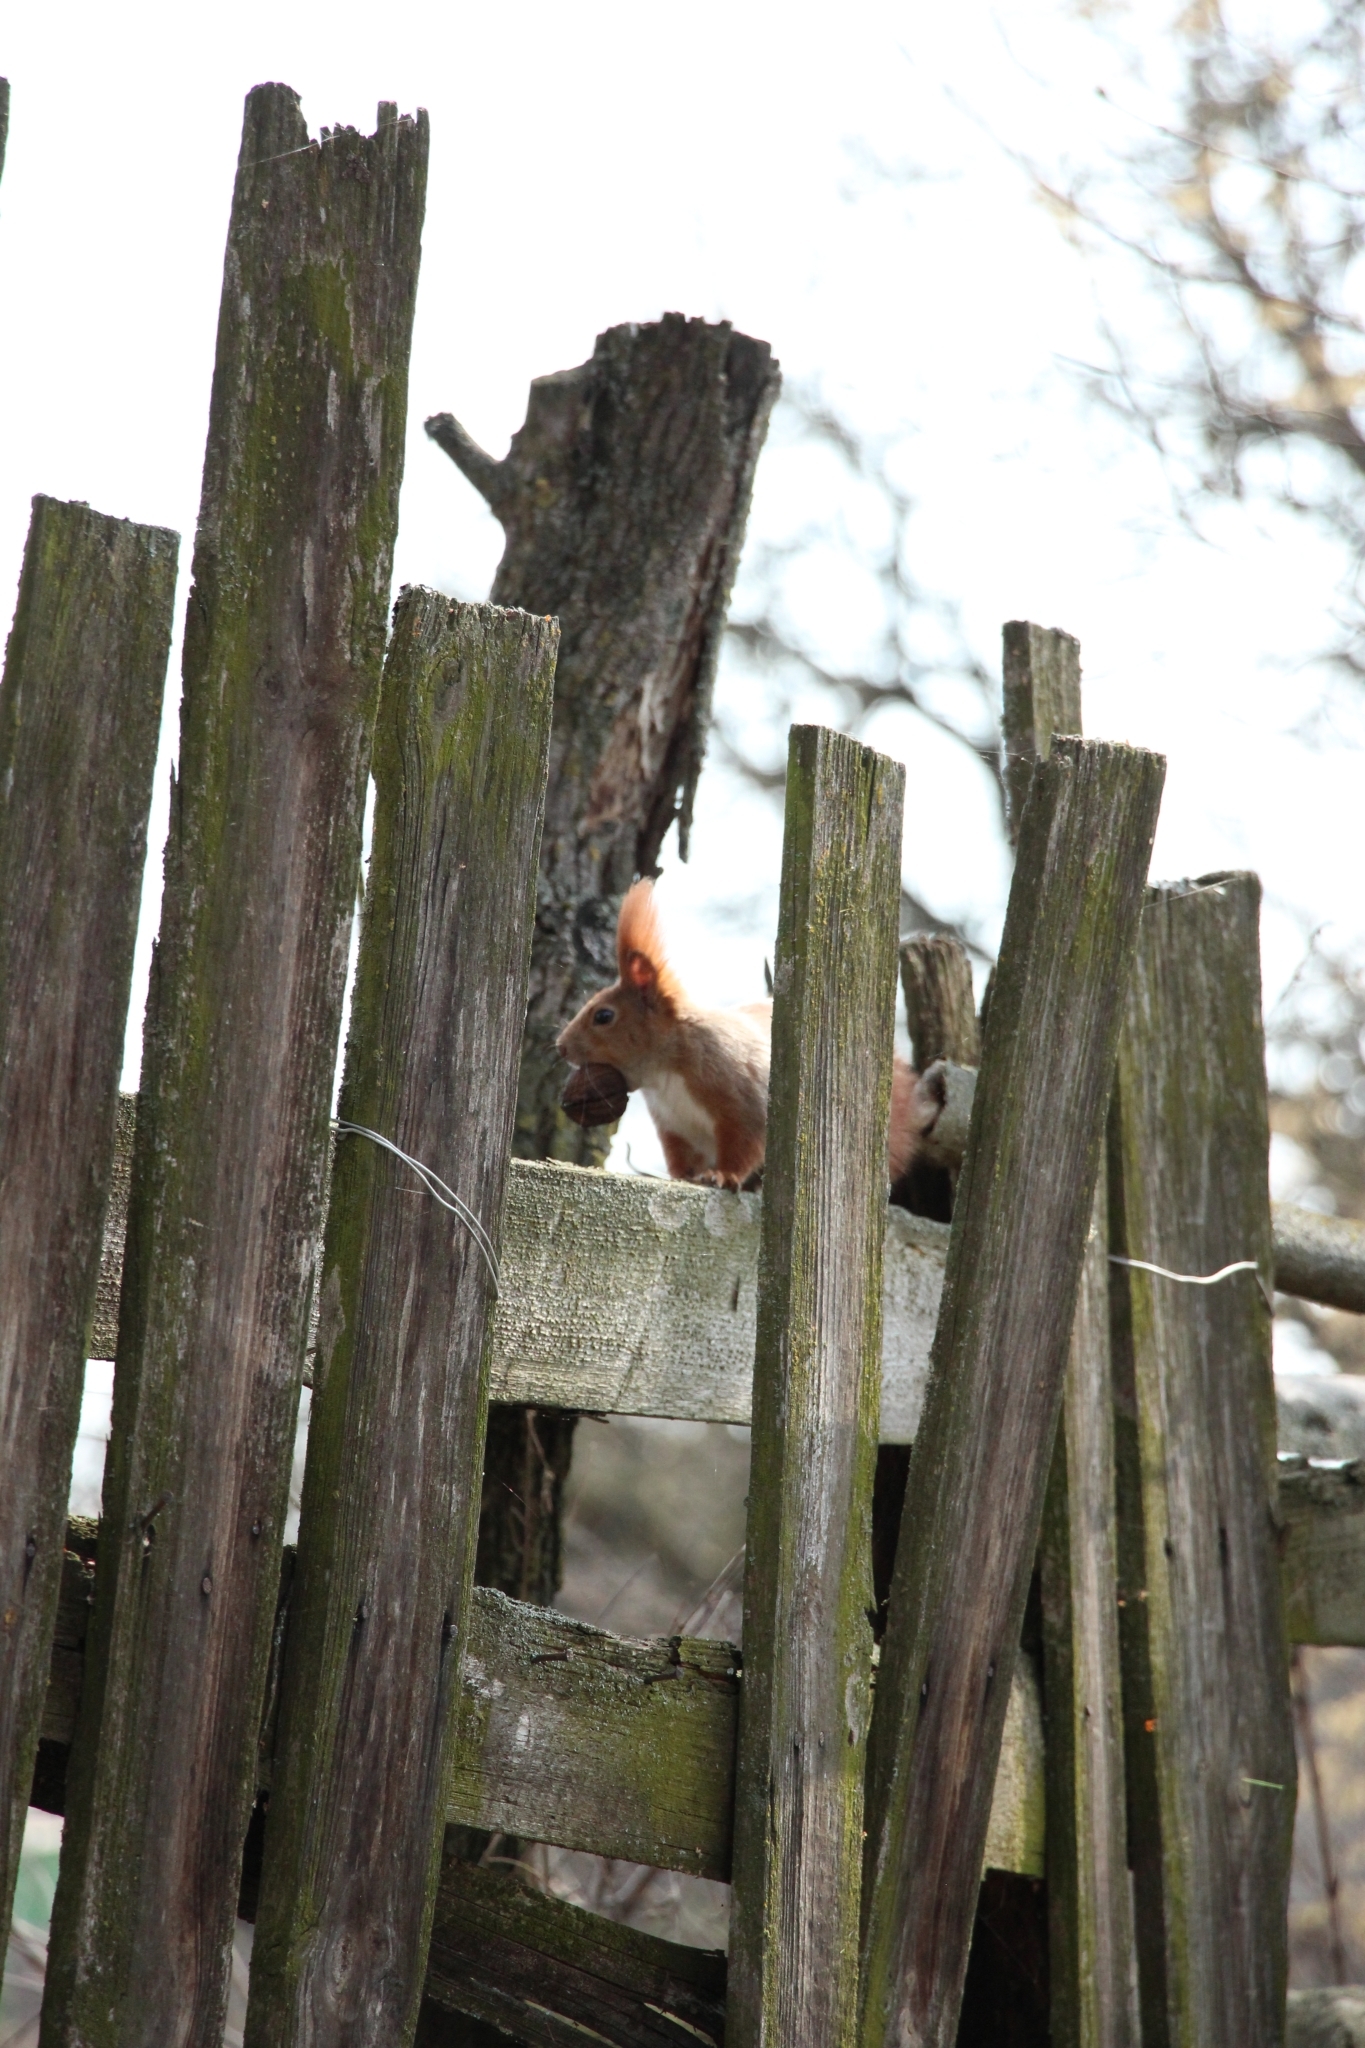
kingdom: Animalia
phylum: Chordata
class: Mammalia
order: Rodentia
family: Sciuridae
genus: Sciurus
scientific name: Sciurus vulgaris
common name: Eurasian red squirrel
